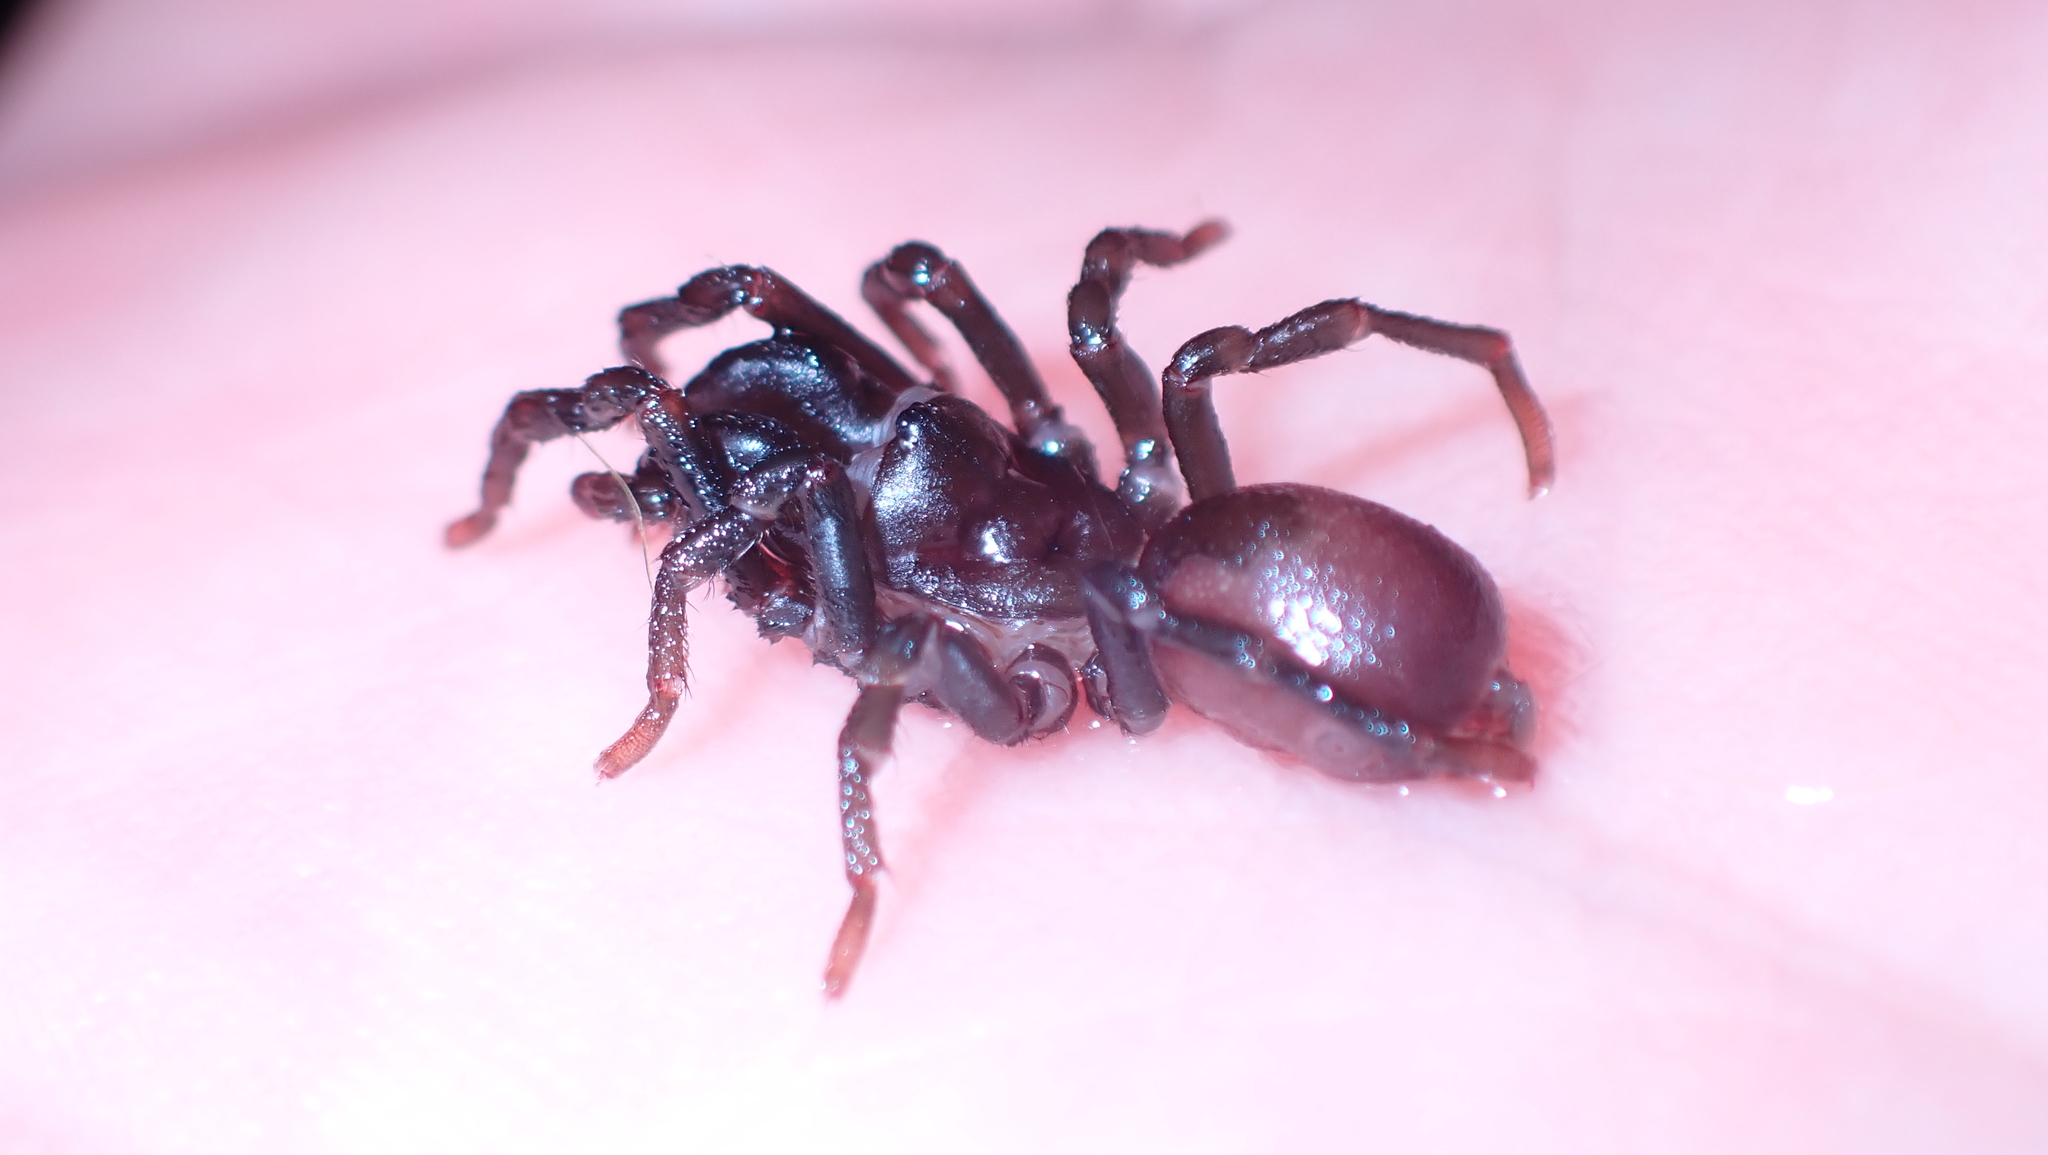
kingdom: Animalia
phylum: Arthropoda
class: Arachnida
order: Araneae
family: Atypidae
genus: Atypus
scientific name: Atypus affinis
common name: Purse web spider
